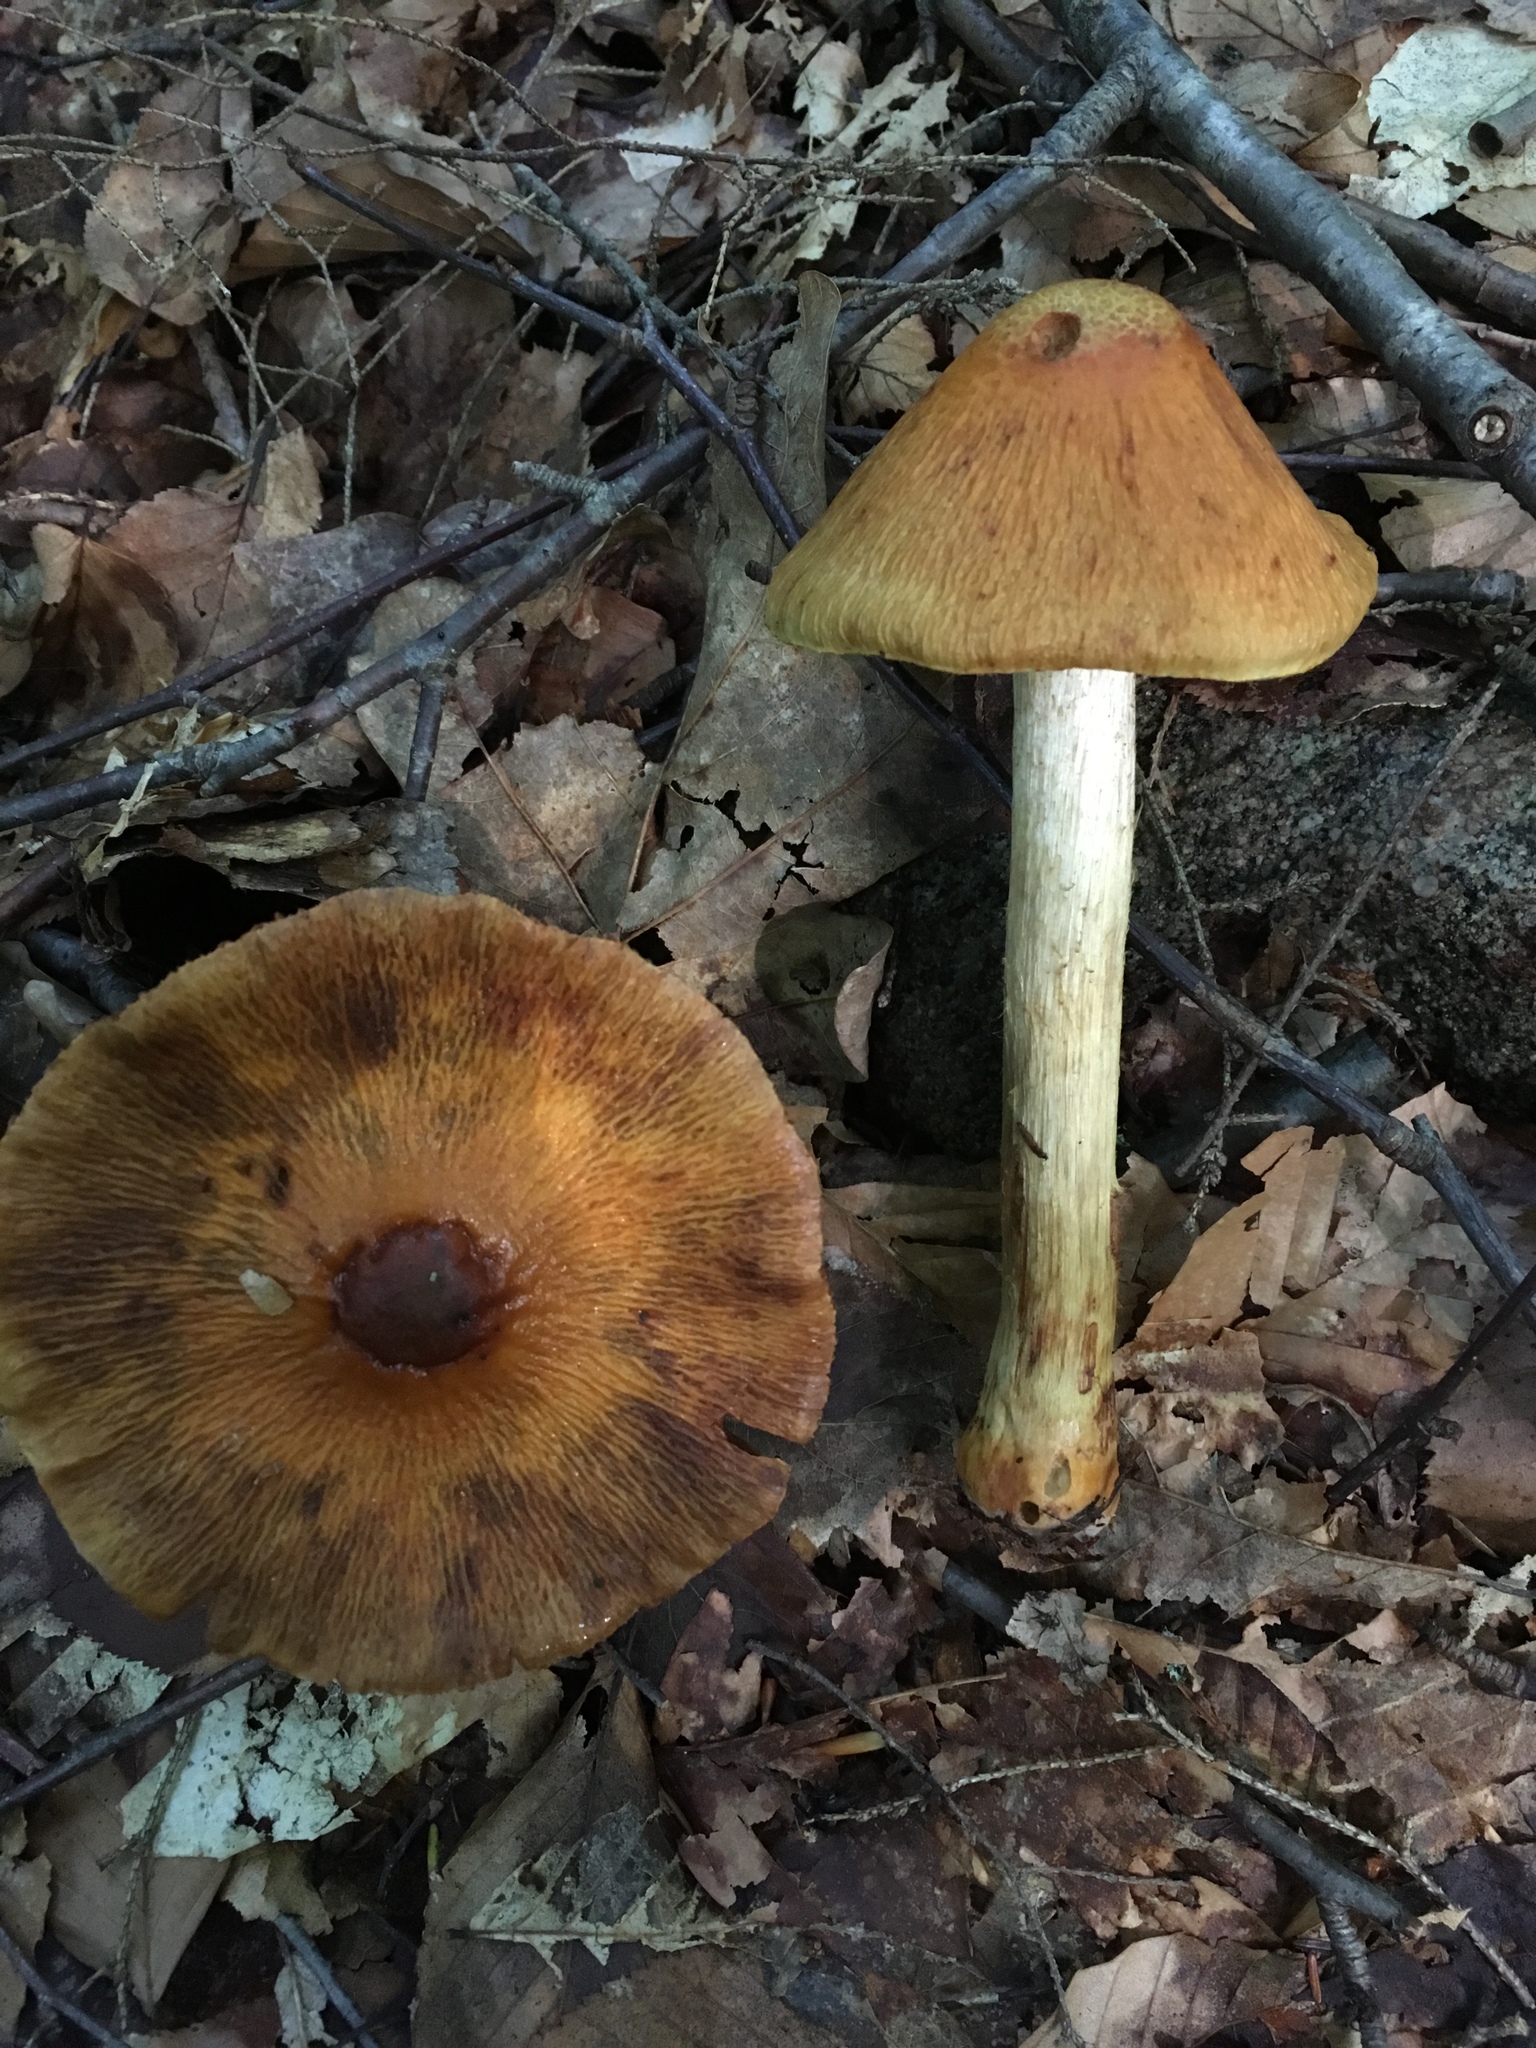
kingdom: Fungi
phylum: Basidiomycota
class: Agaricomycetes
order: Agaricales
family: Cortinariaceae
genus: Cortinarius
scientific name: Cortinarius corrugatus
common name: Wrinkled cortinarius
